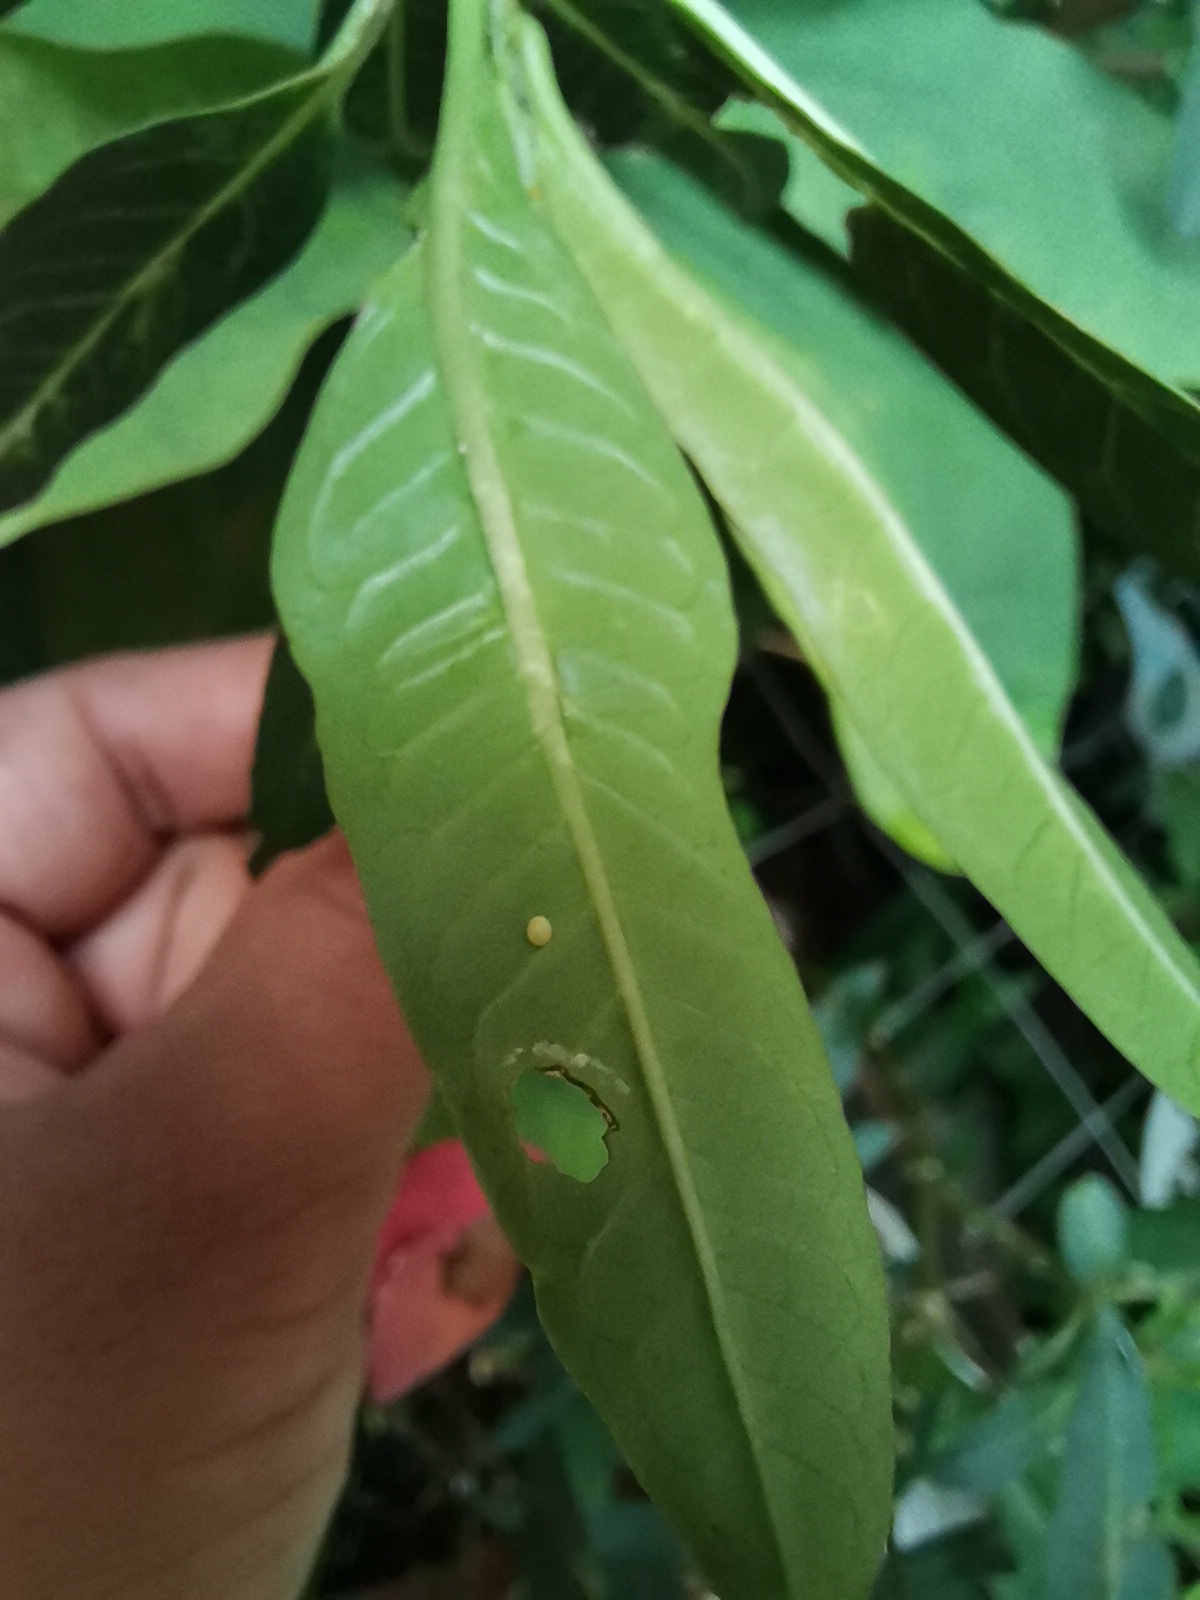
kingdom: Animalia
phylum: Arthropoda
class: Insecta
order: Lepidoptera
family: Nymphalidae
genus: Danaus
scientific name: Danaus plexippus
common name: Monarch
